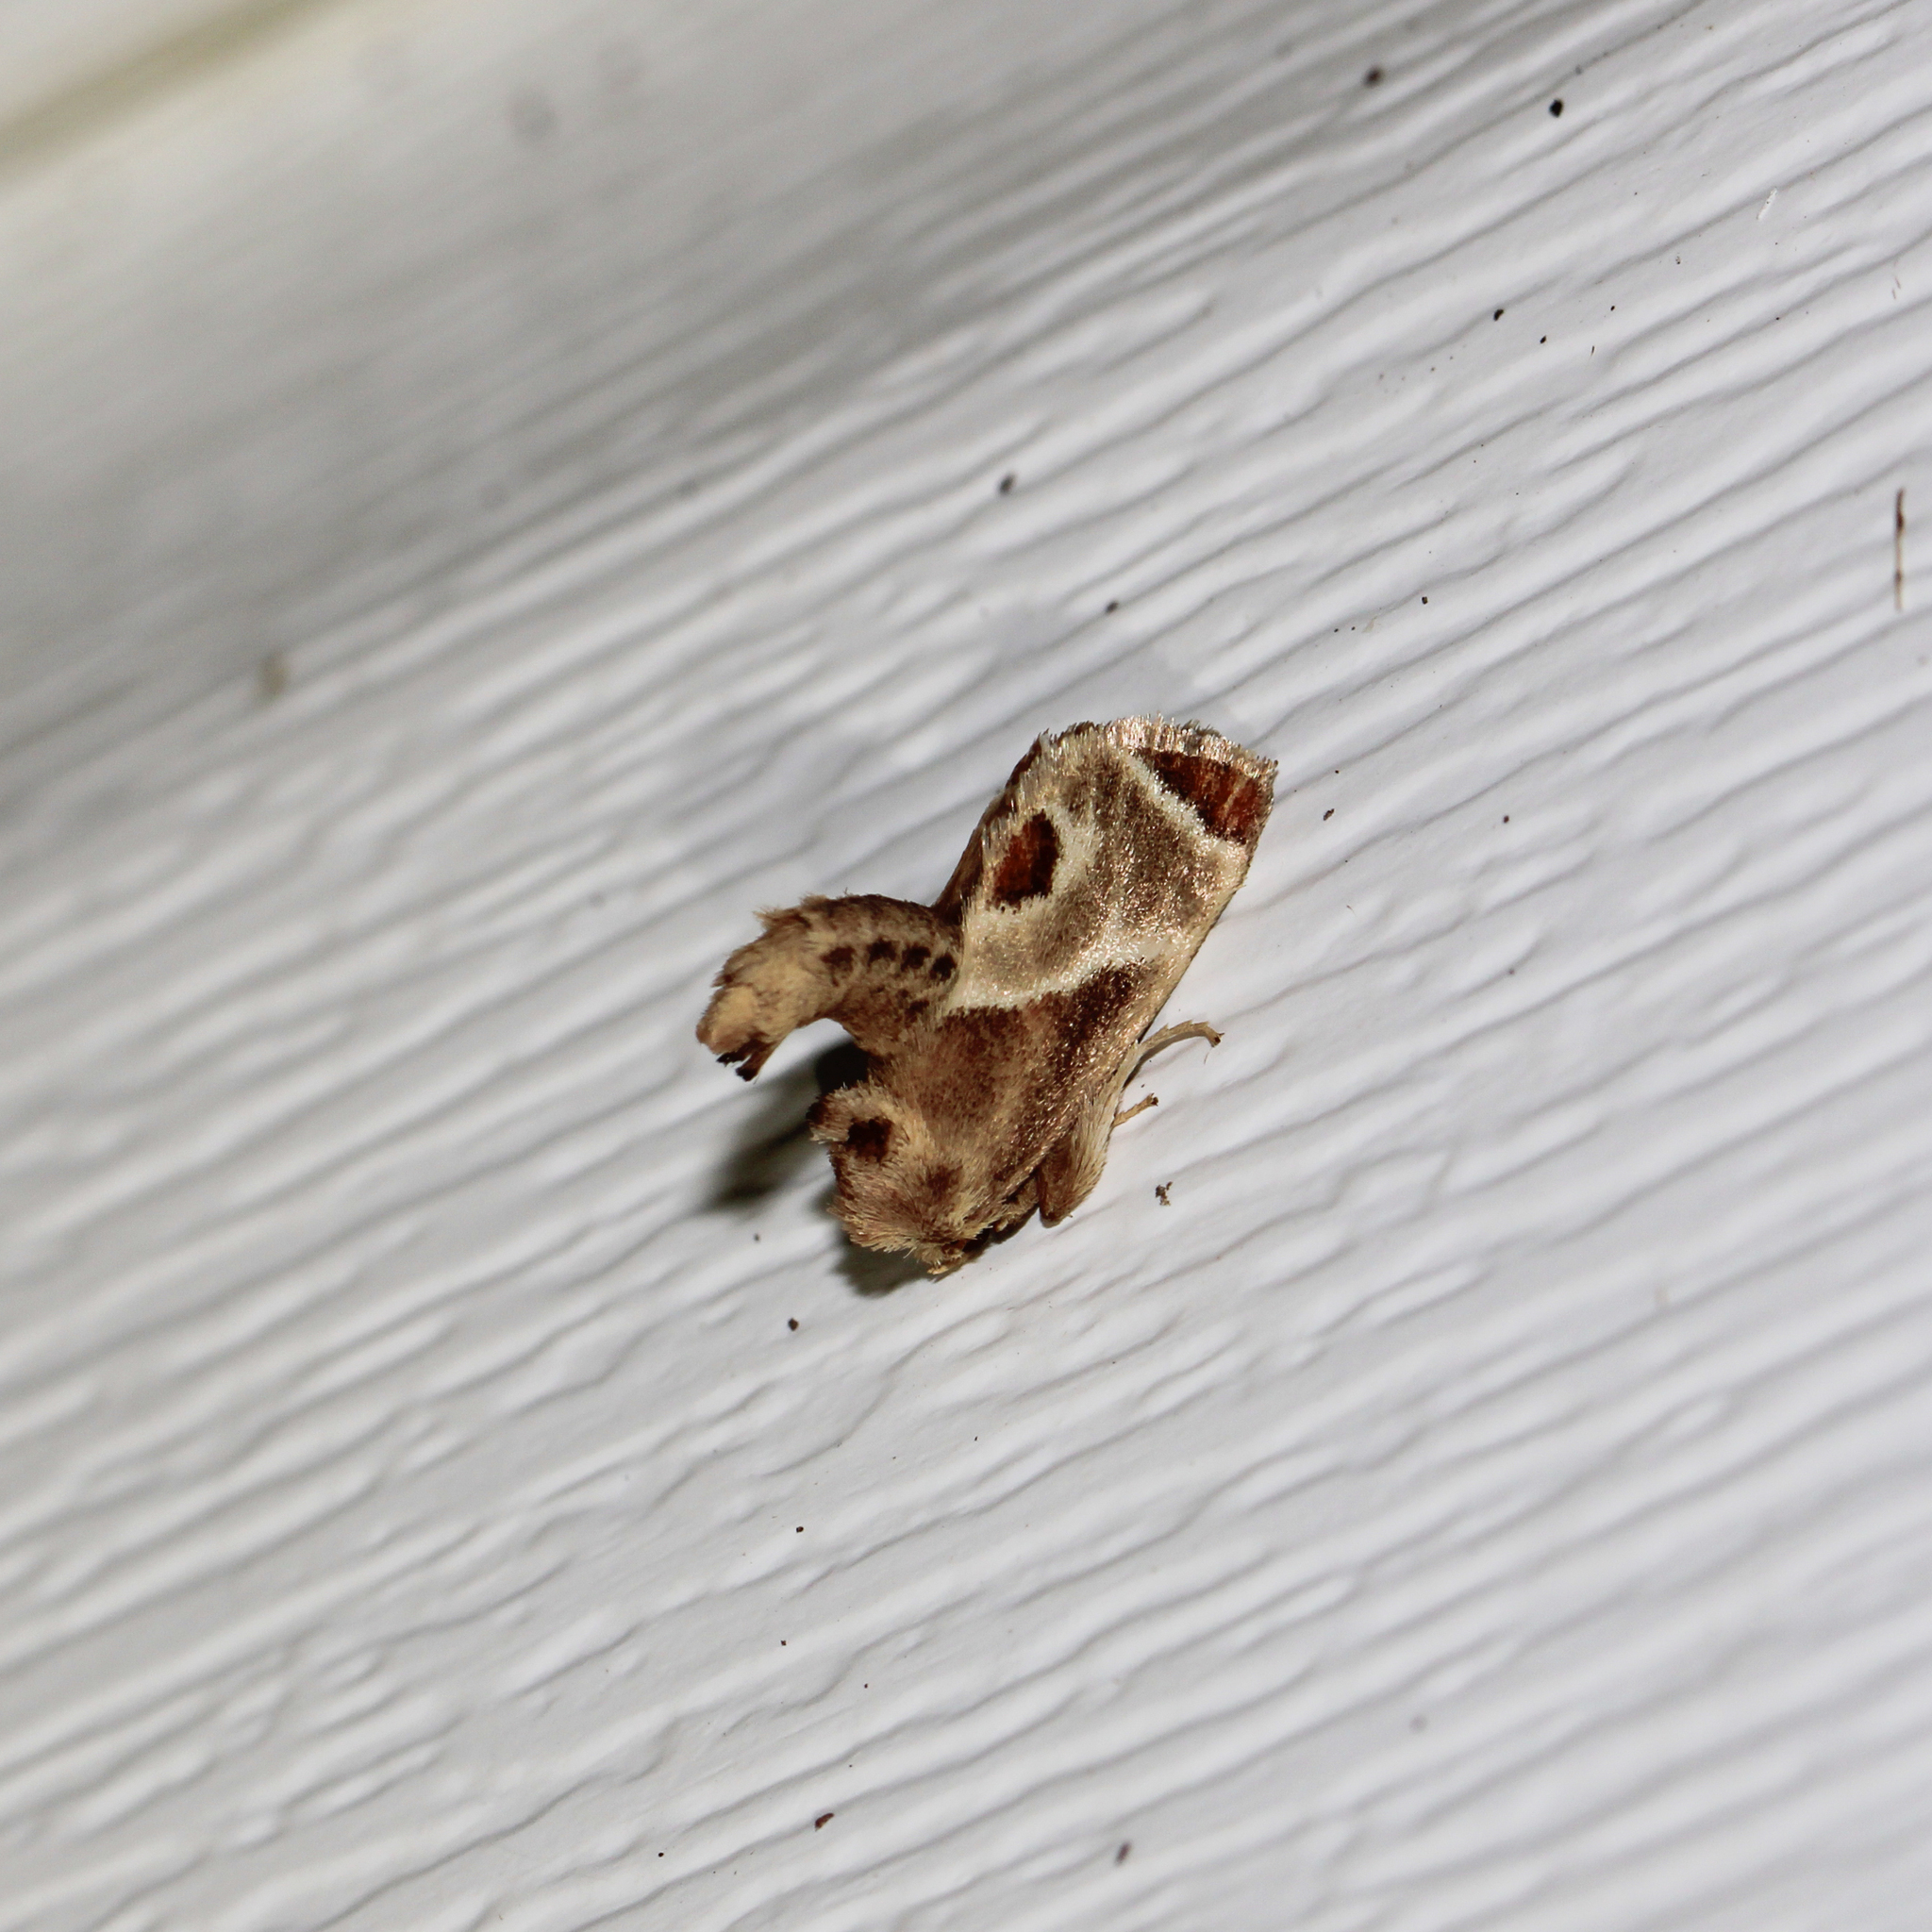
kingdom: Animalia
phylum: Arthropoda
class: Insecta
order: Lepidoptera
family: Limacodidae
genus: Apoda
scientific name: Apoda biguttata
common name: Shagreened slug moth
